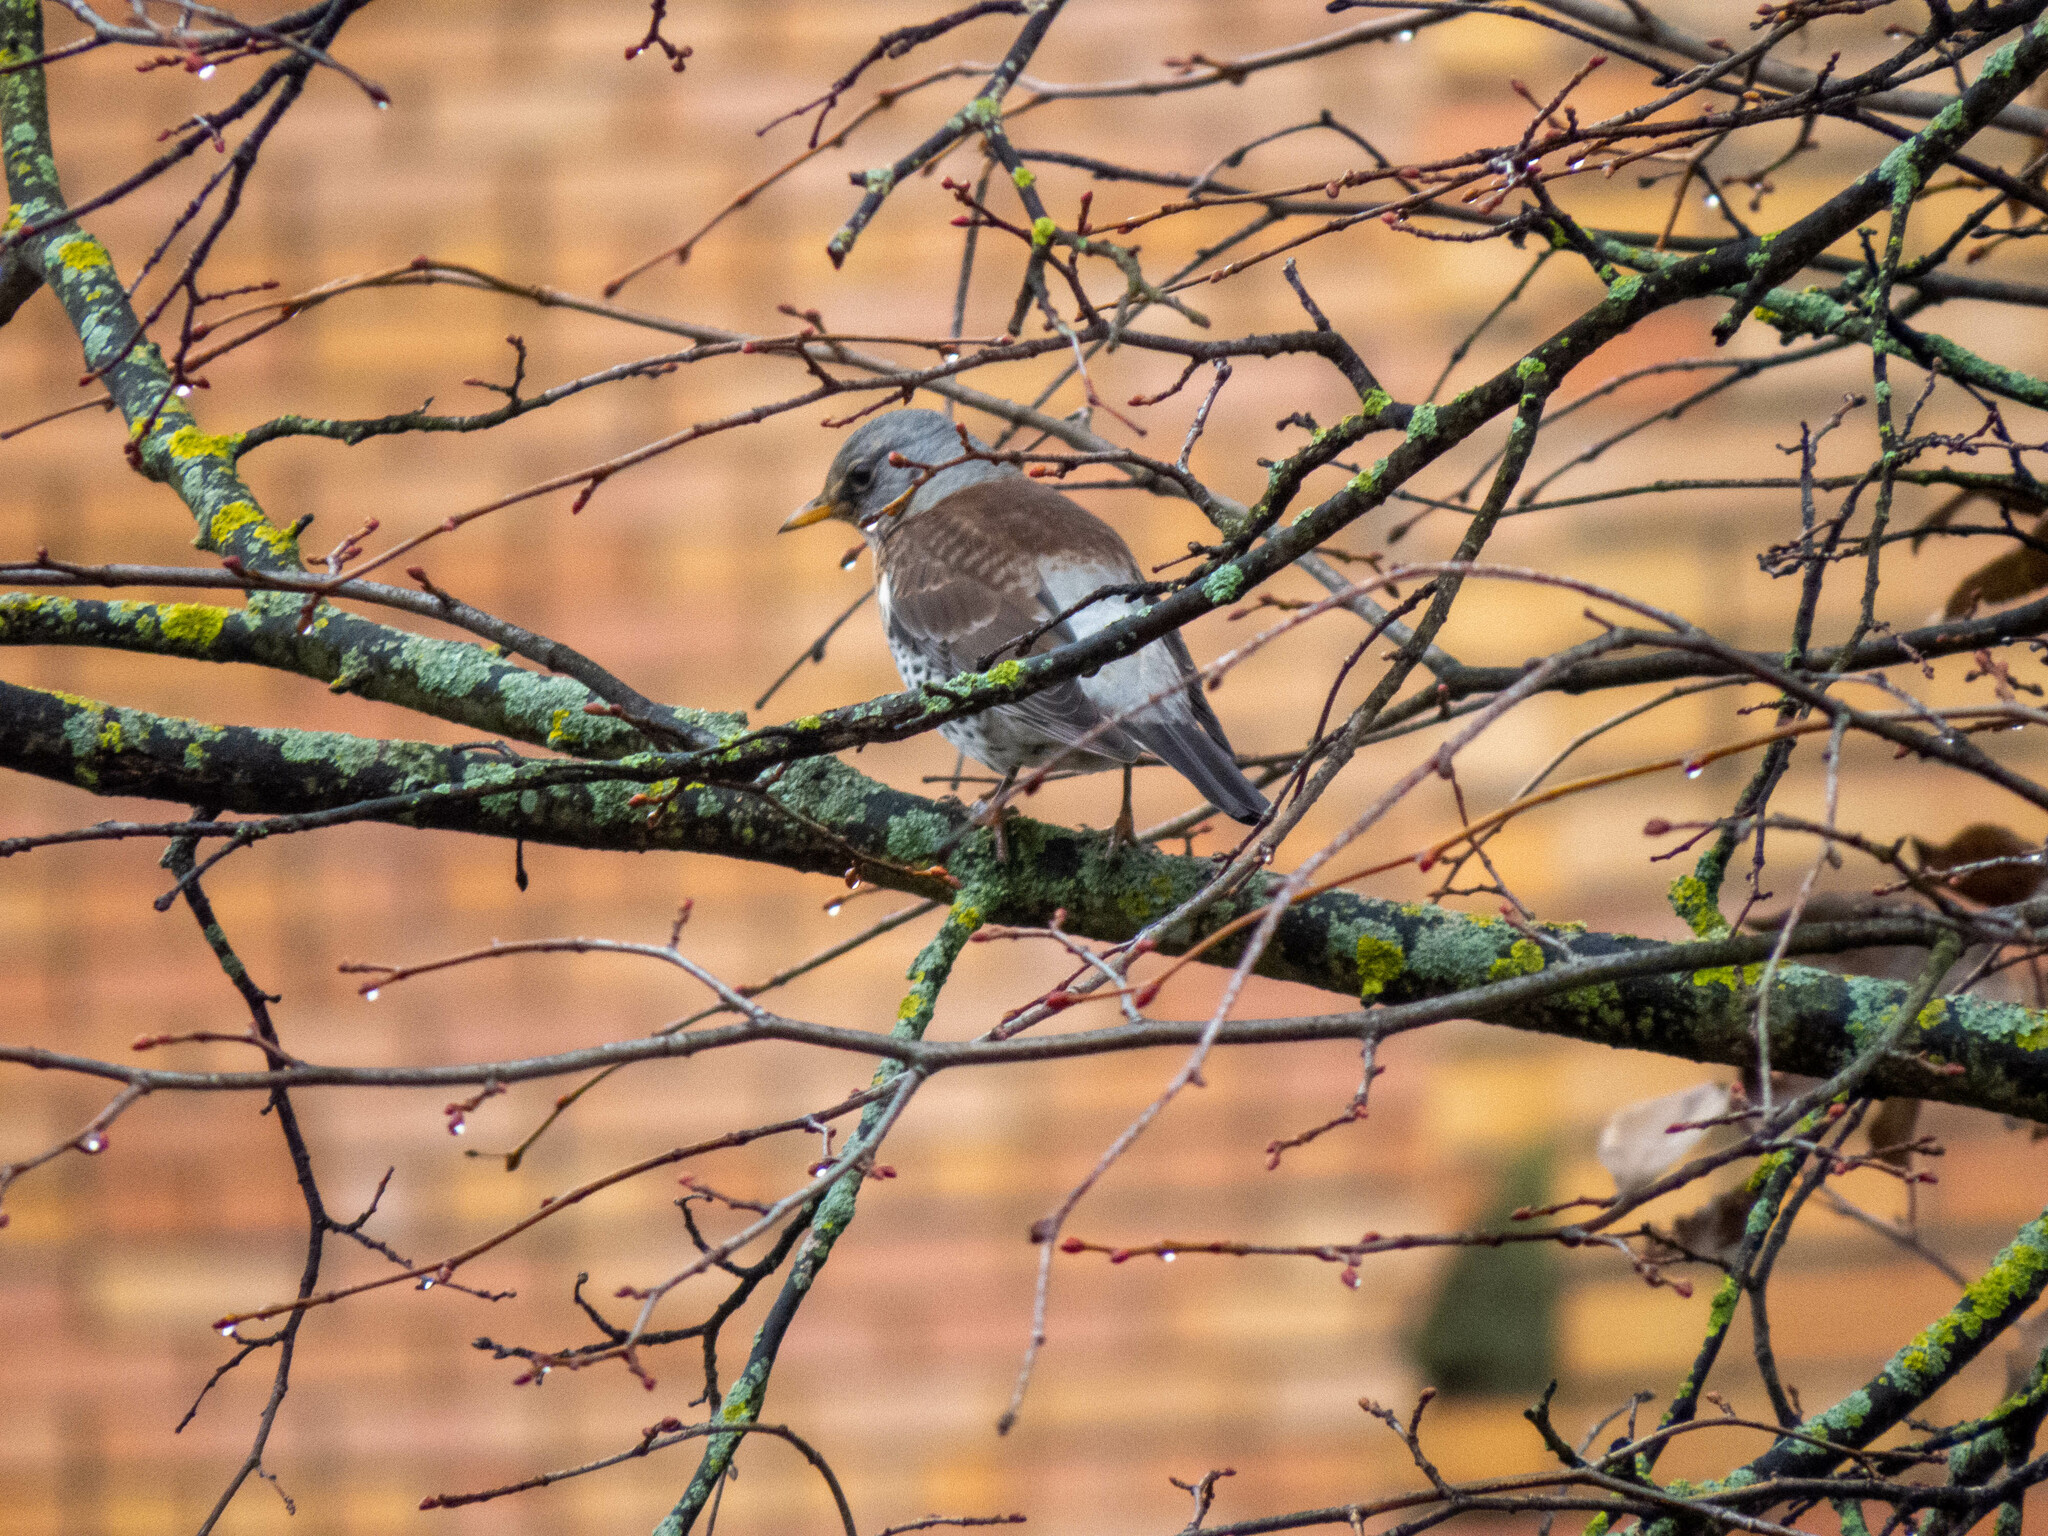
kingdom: Animalia
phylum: Chordata
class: Aves
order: Passeriformes
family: Turdidae
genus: Turdus
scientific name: Turdus pilaris
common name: Fieldfare
